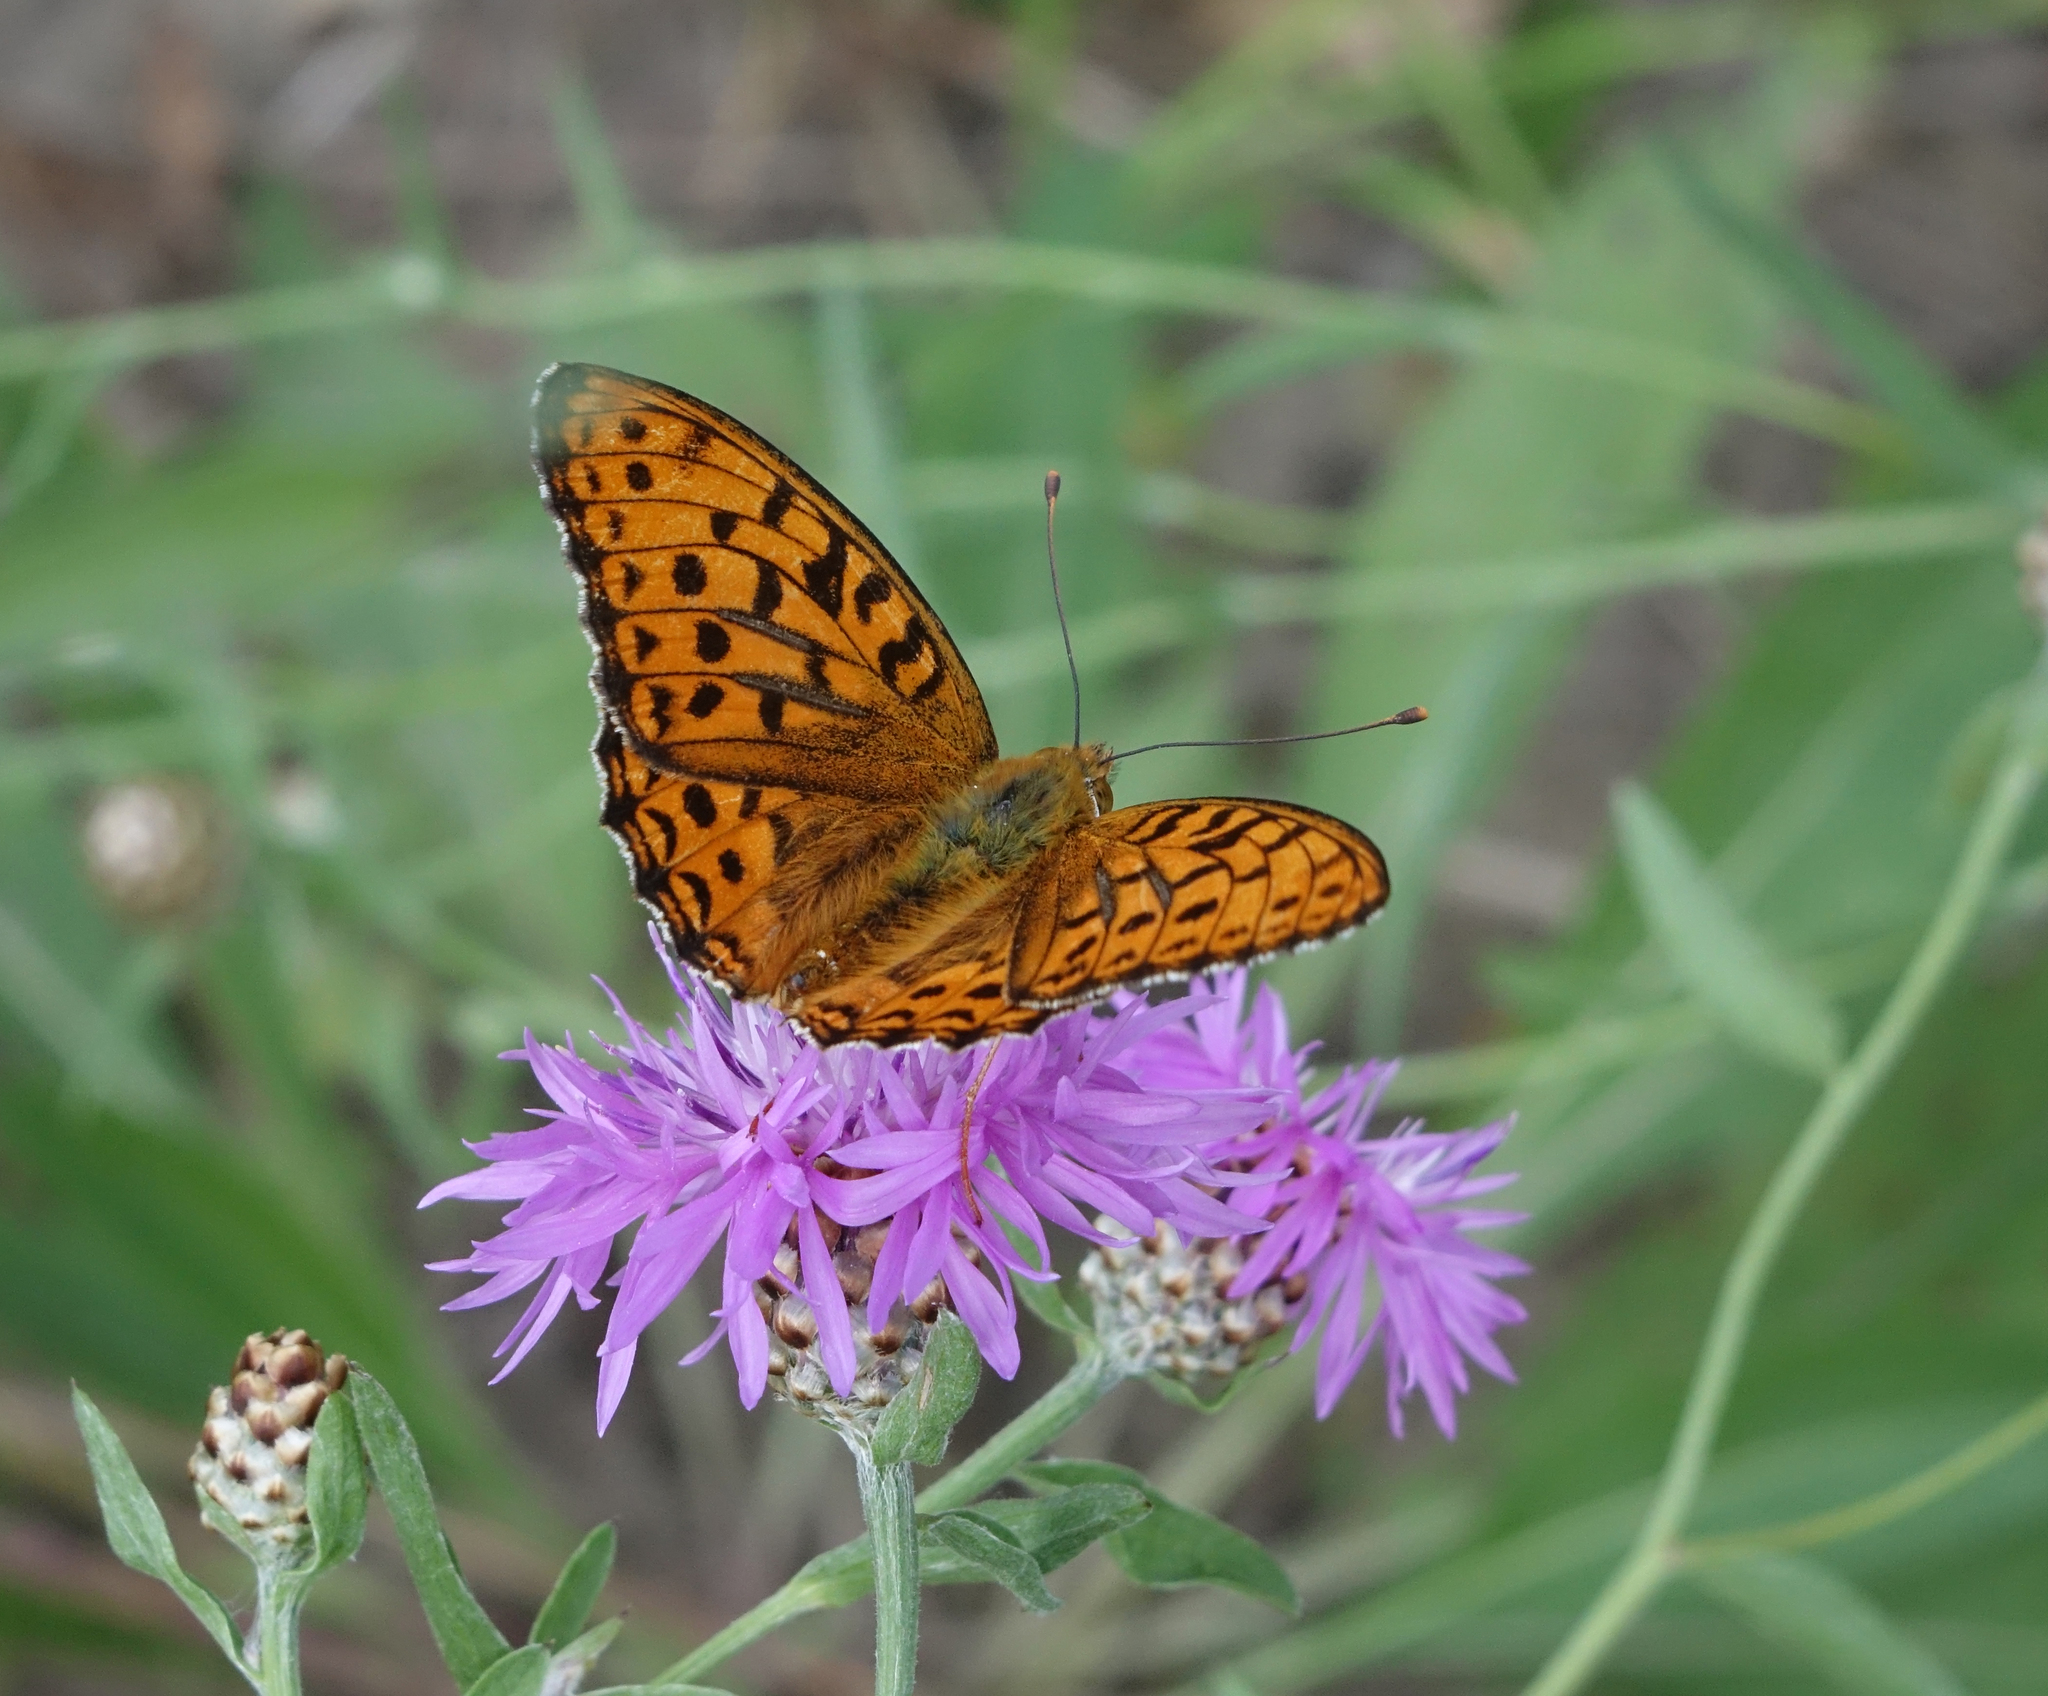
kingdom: Animalia
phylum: Arthropoda
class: Insecta
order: Lepidoptera
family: Nymphalidae
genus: Fabriciana
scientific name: Fabriciana adippe
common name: High brown fritillary
